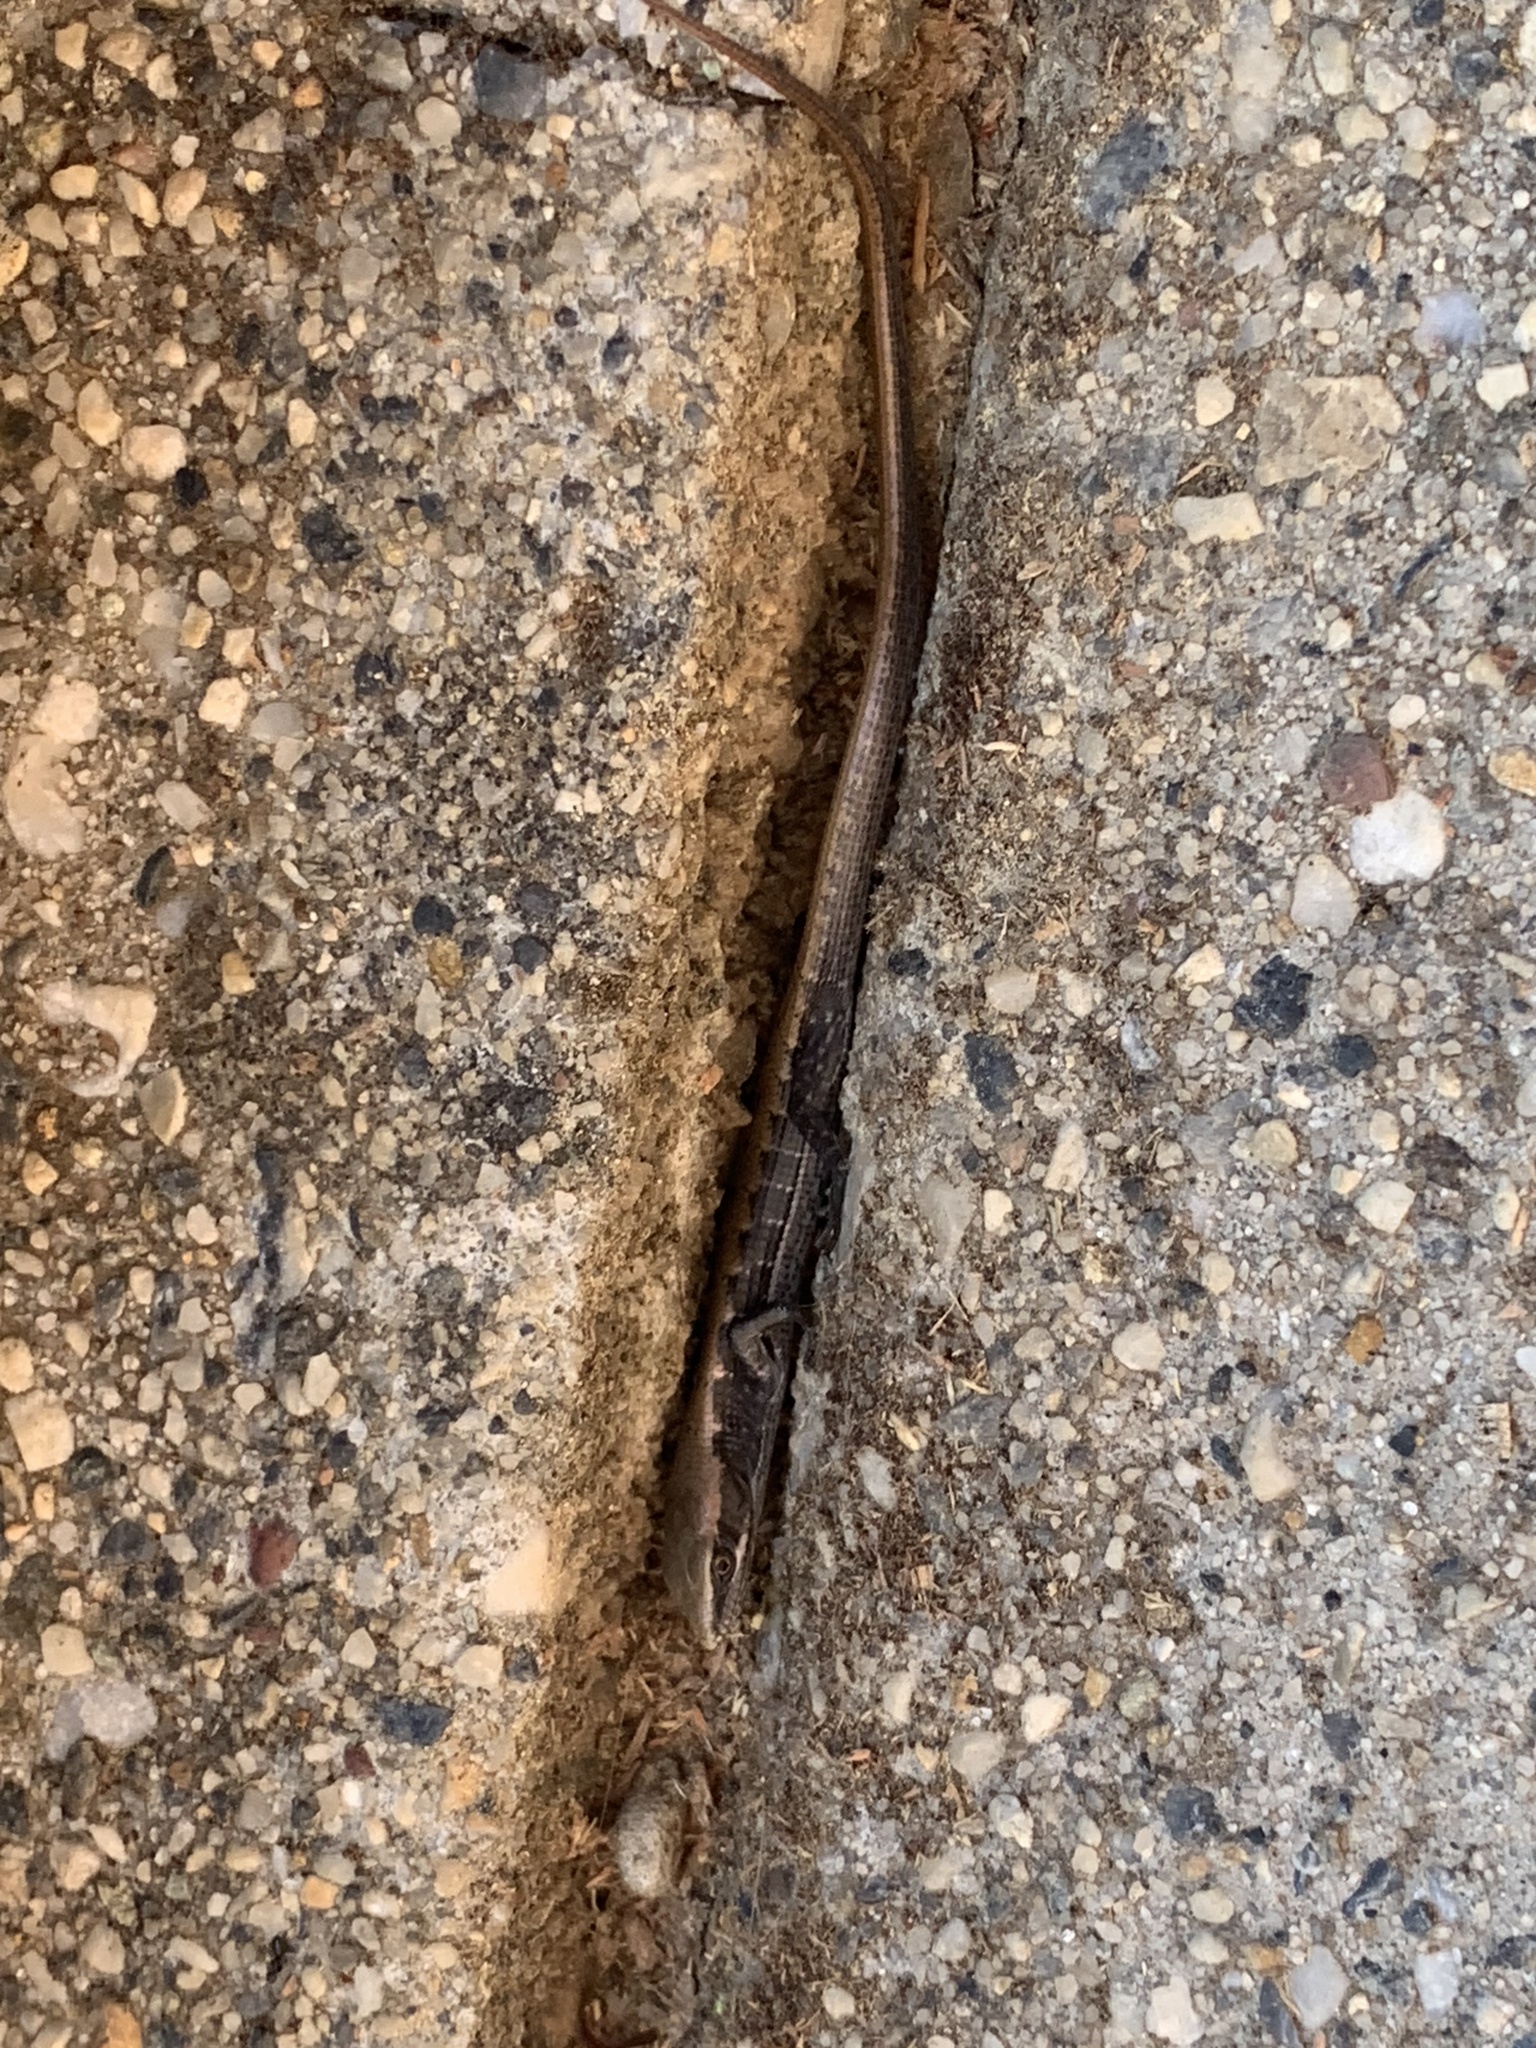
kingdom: Animalia
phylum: Chordata
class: Squamata
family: Anguidae
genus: Elgaria
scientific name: Elgaria multicarinata
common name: Southern alligator lizard
